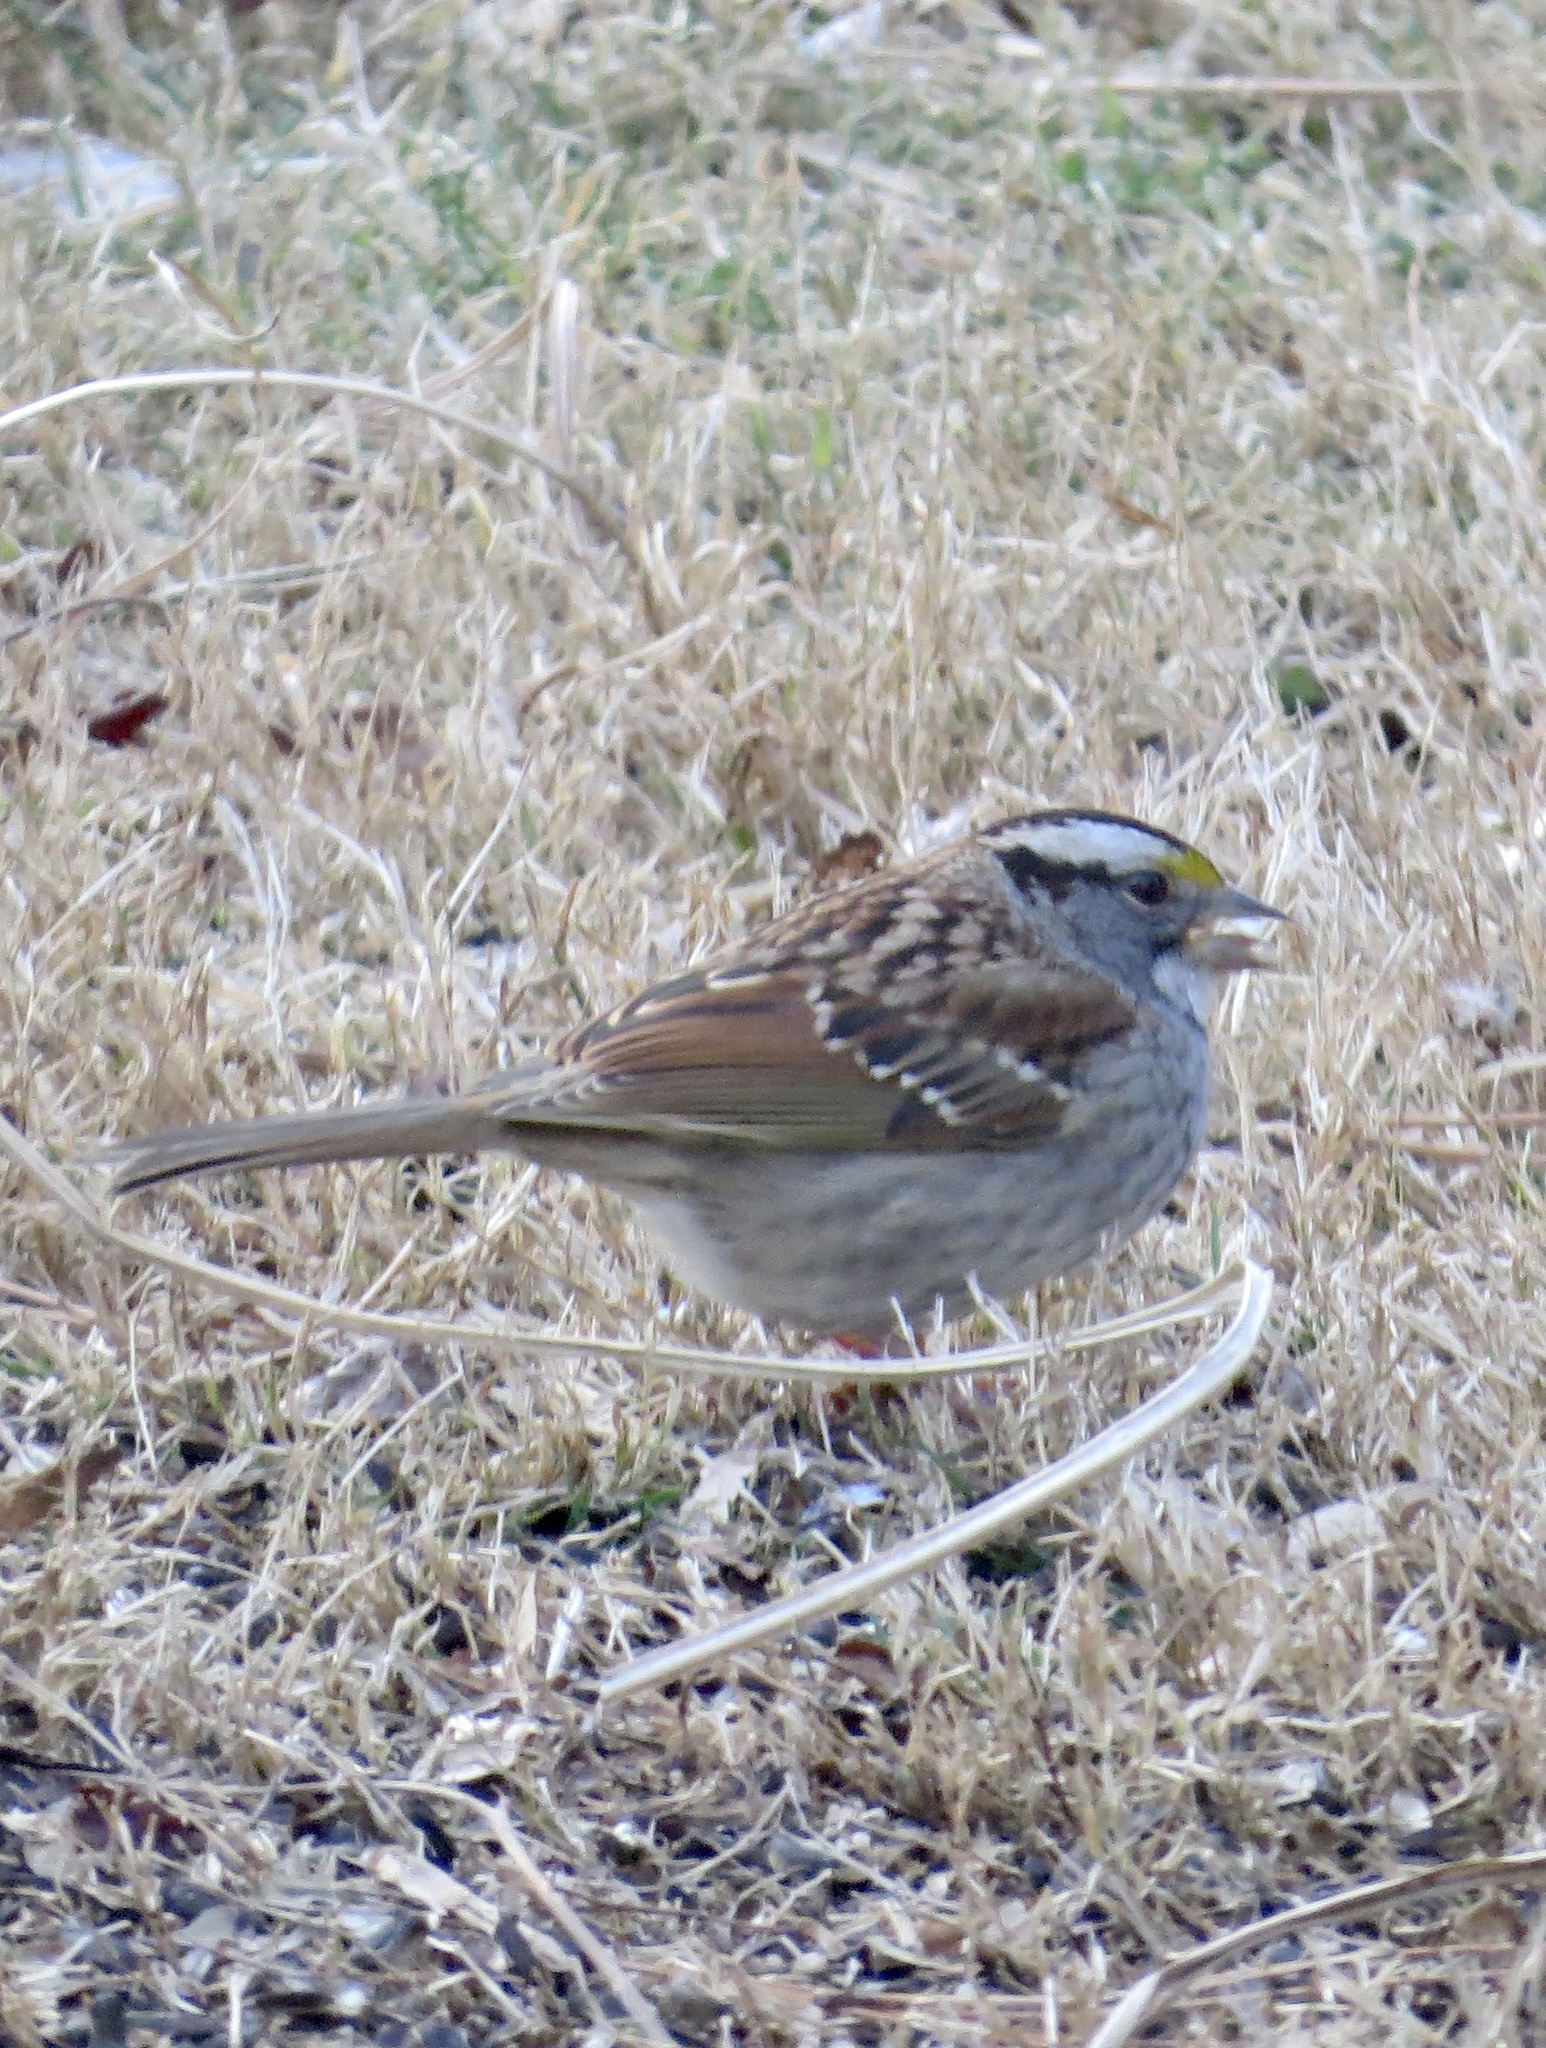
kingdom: Animalia
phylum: Chordata
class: Aves
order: Passeriformes
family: Passerellidae
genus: Zonotrichia
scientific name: Zonotrichia albicollis
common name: White-throated sparrow
